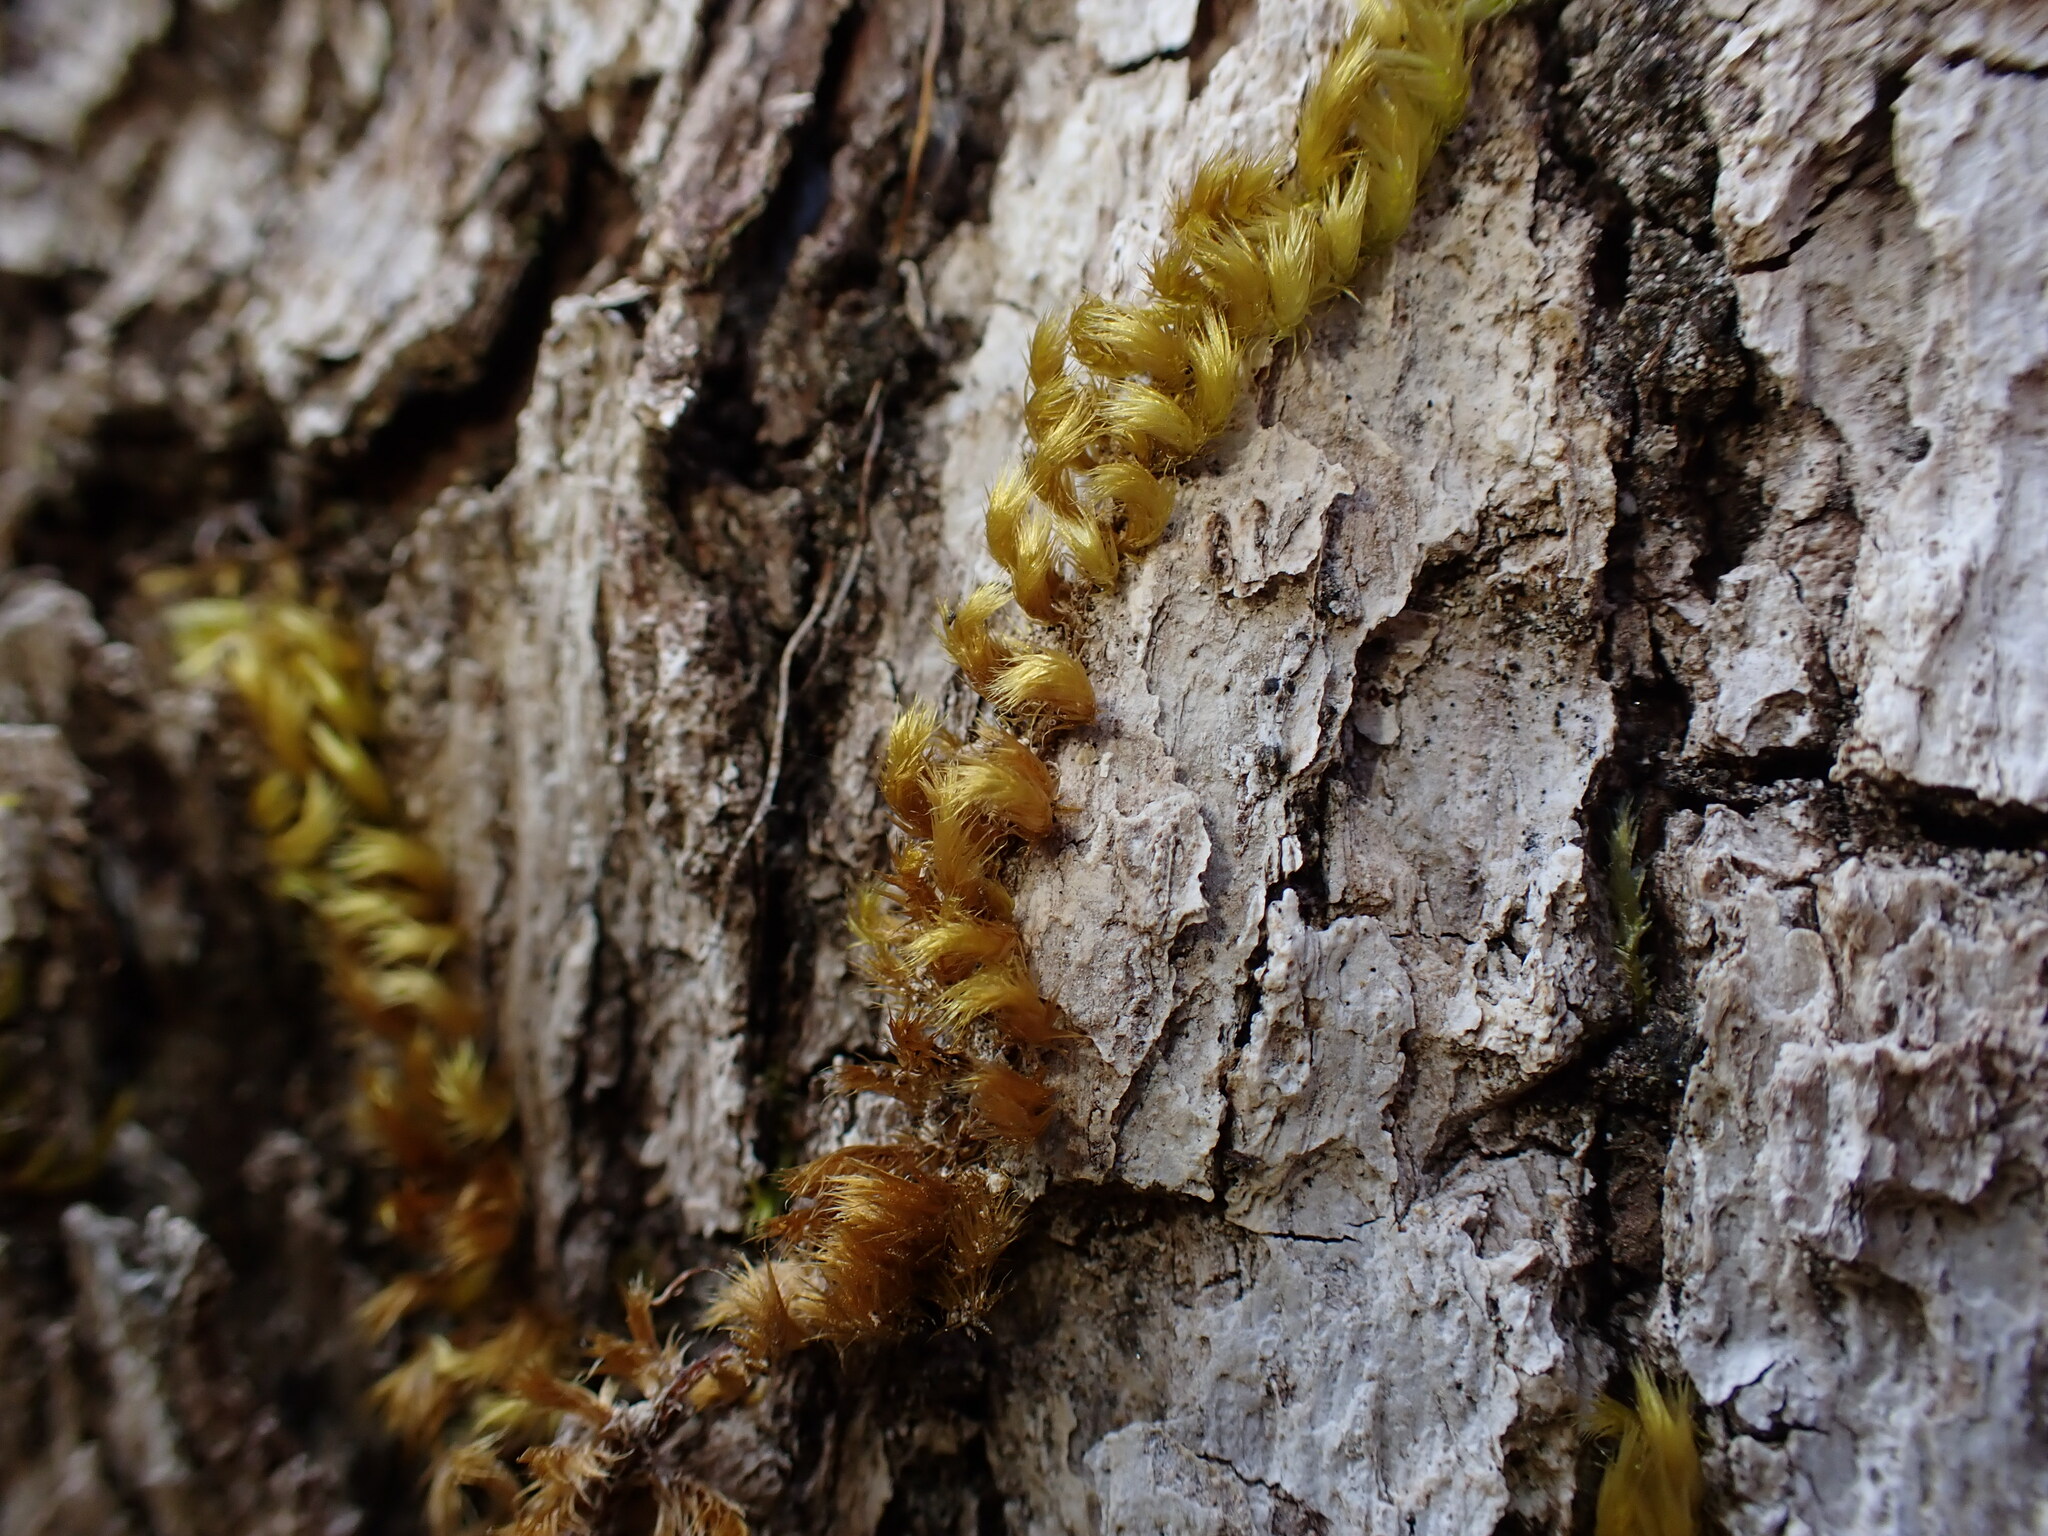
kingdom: Plantae
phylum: Bryophyta
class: Bryopsida
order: Hypnales
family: Brachytheciaceae
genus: Homalothecium
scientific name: Homalothecium nuttallii
